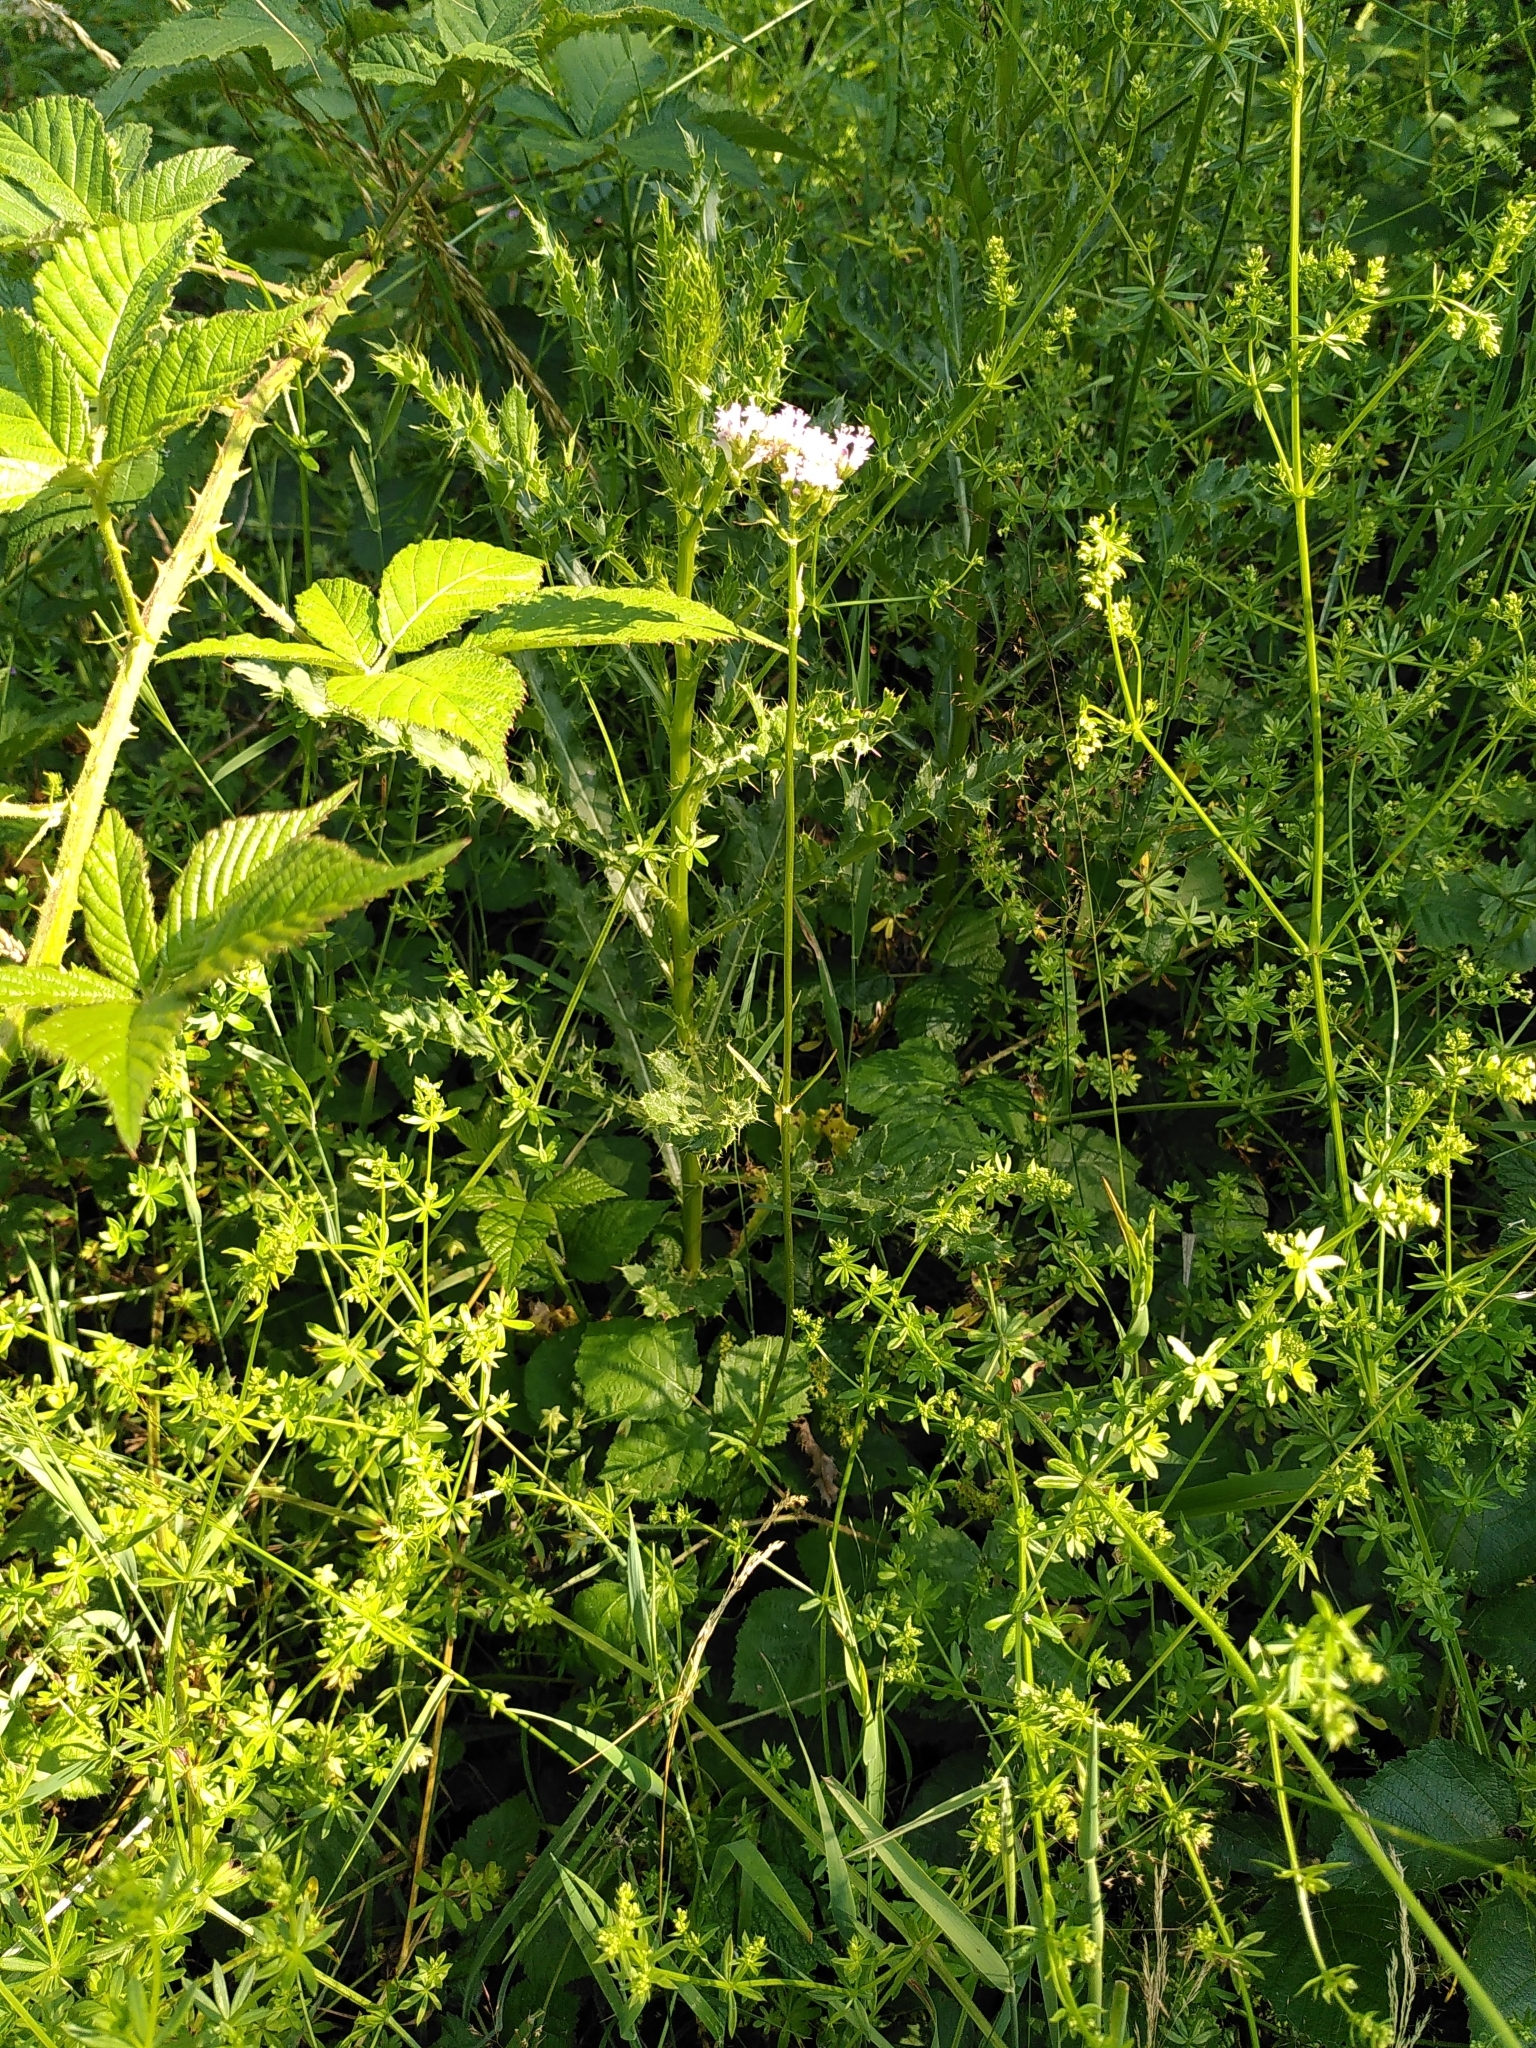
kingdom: Plantae
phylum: Tracheophyta
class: Magnoliopsida
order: Dipsacales
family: Caprifoliaceae
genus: Valeriana
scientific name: Valeriana officinalis
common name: Common valerian
